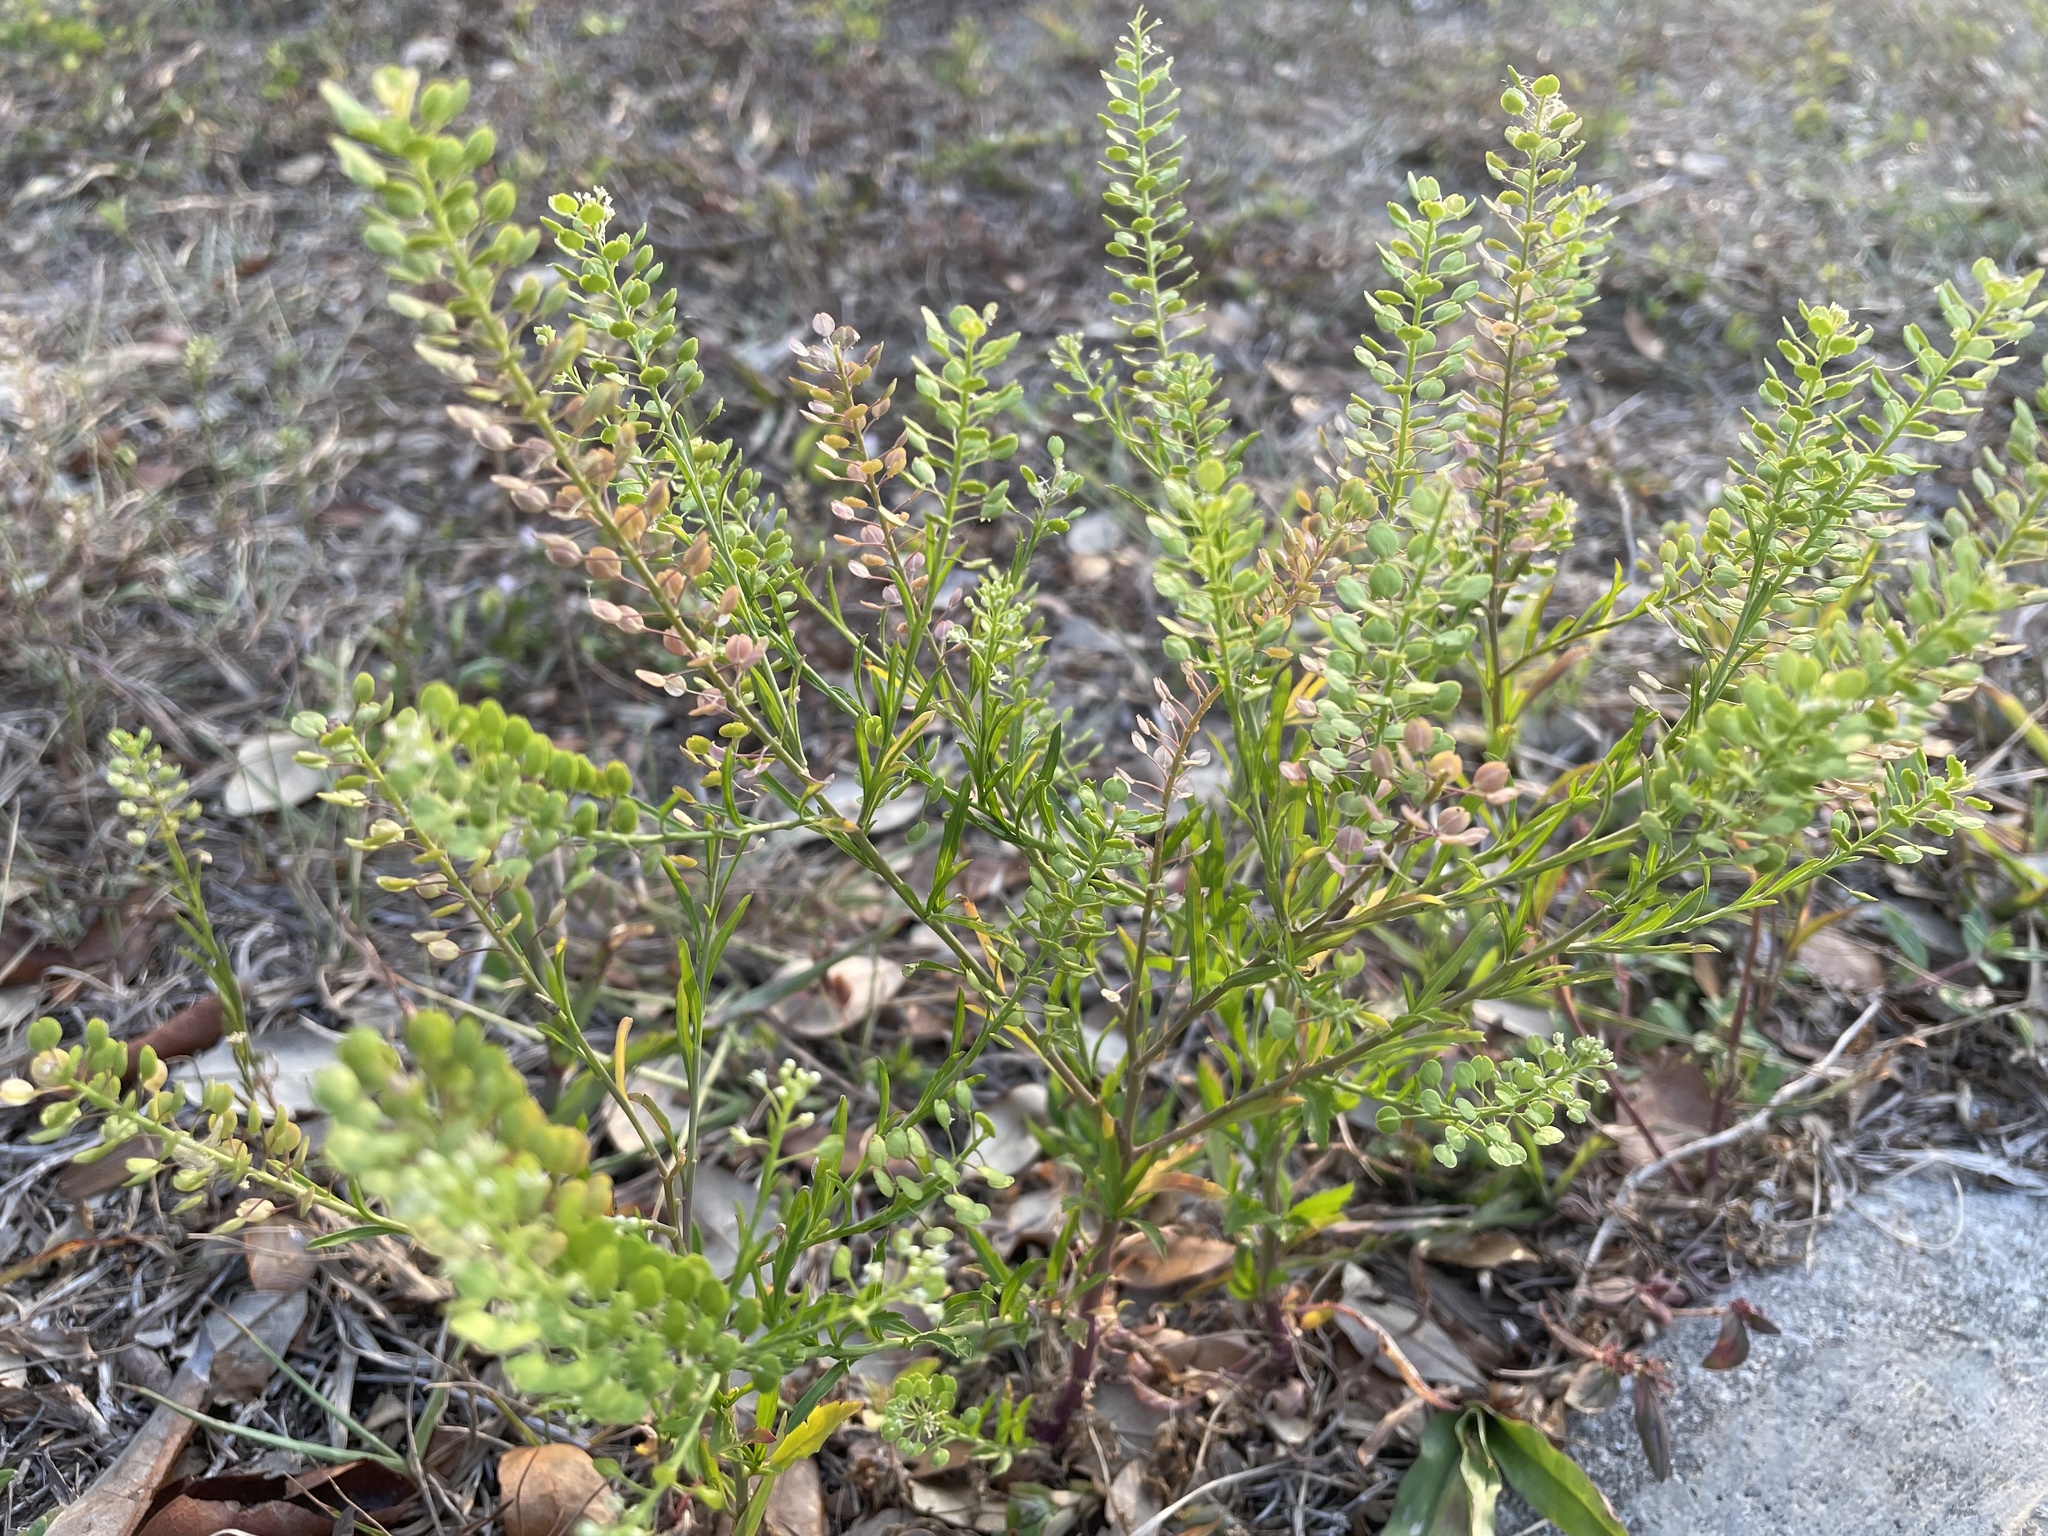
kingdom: Plantae
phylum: Tracheophyta
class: Magnoliopsida
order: Brassicales
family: Brassicaceae
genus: Lepidium
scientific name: Lepidium virginicum
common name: Least pepperwort
